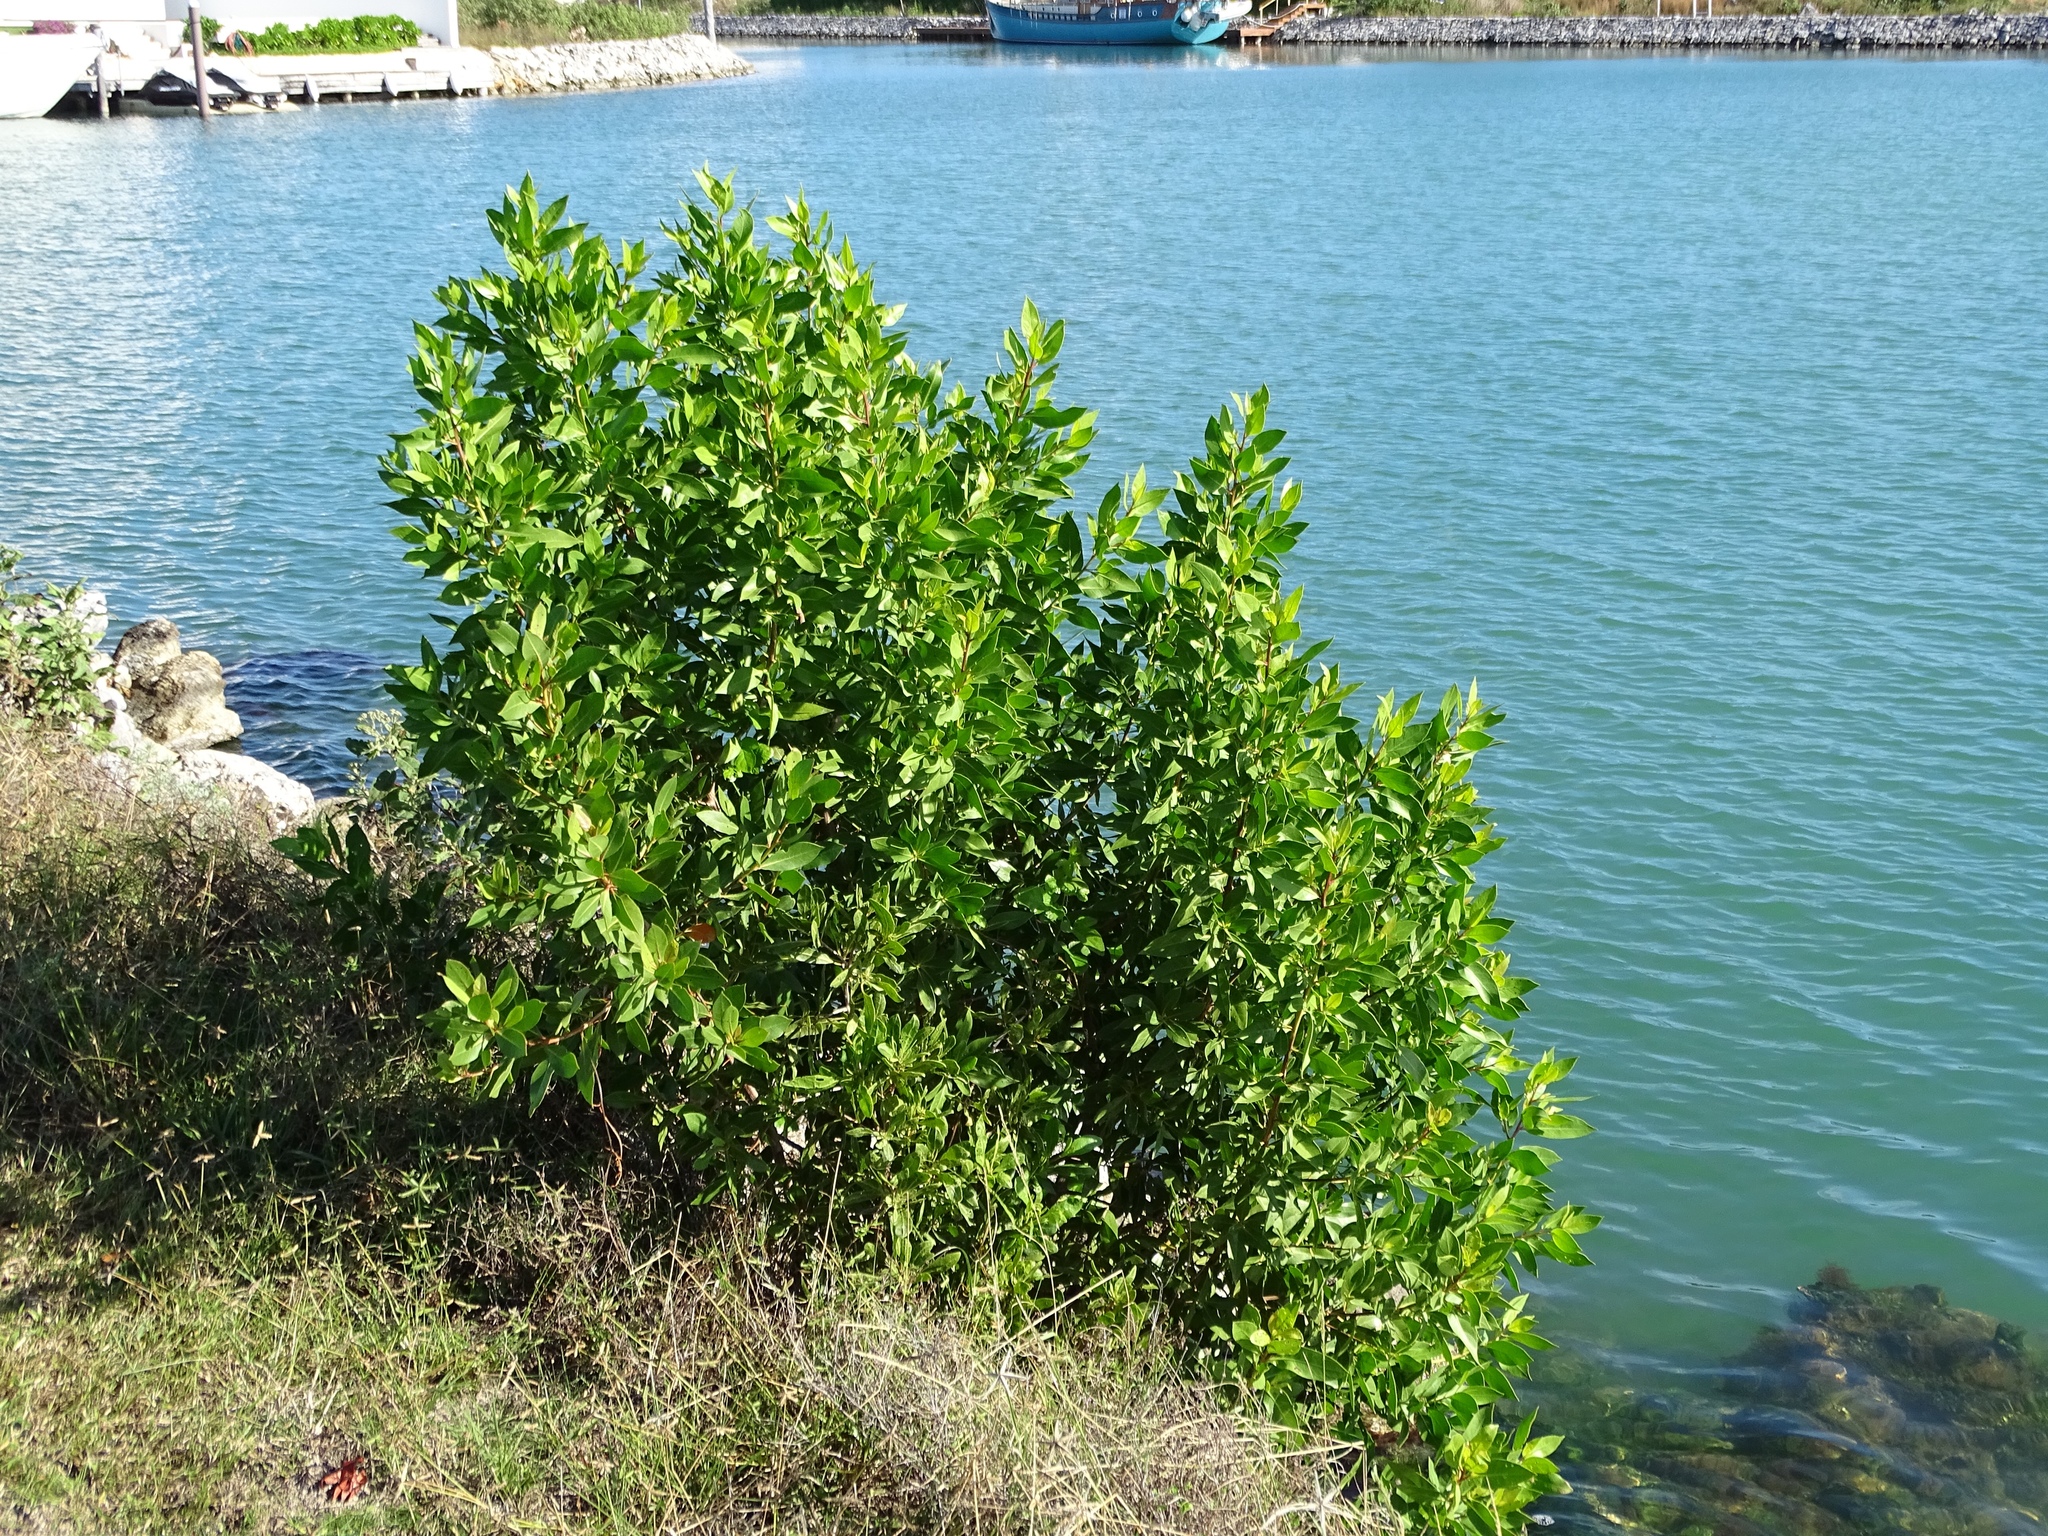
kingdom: Plantae
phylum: Tracheophyta
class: Magnoliopsida
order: Myrtales
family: Combretaceae
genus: Conocarpus
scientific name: Conocarpus erectus
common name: Button mangrove
